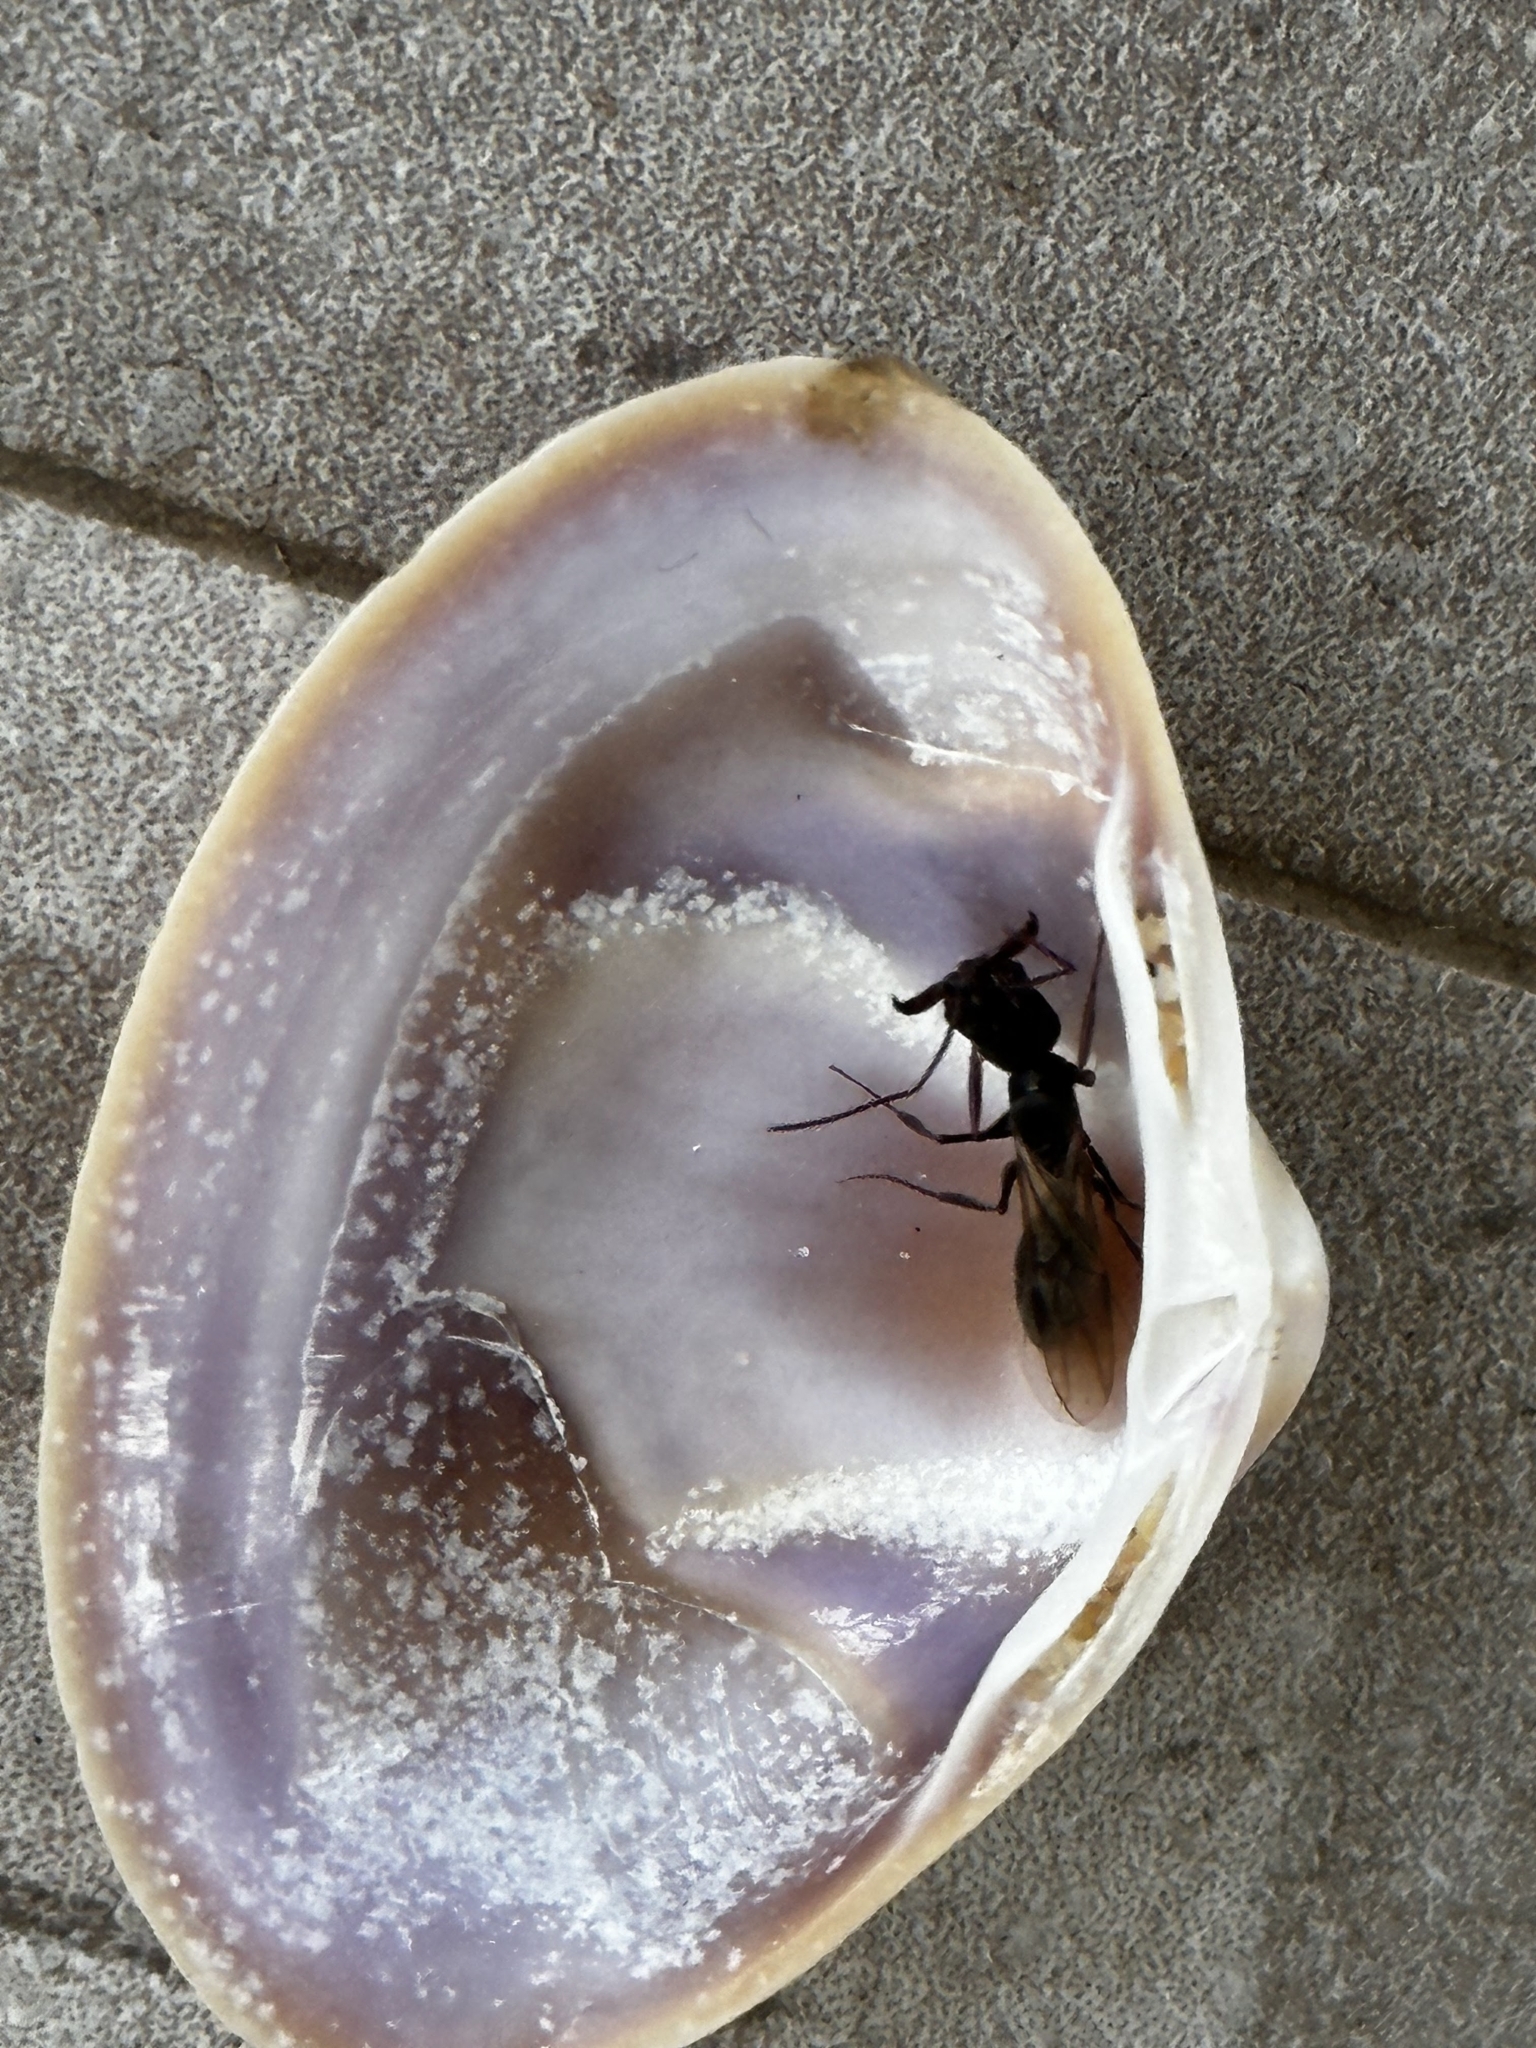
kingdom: Animalia
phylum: Arthropoda
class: Insecta
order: Hymenoptera
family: Formicidae
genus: Odontomachus
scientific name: Odontomachus simillimus
